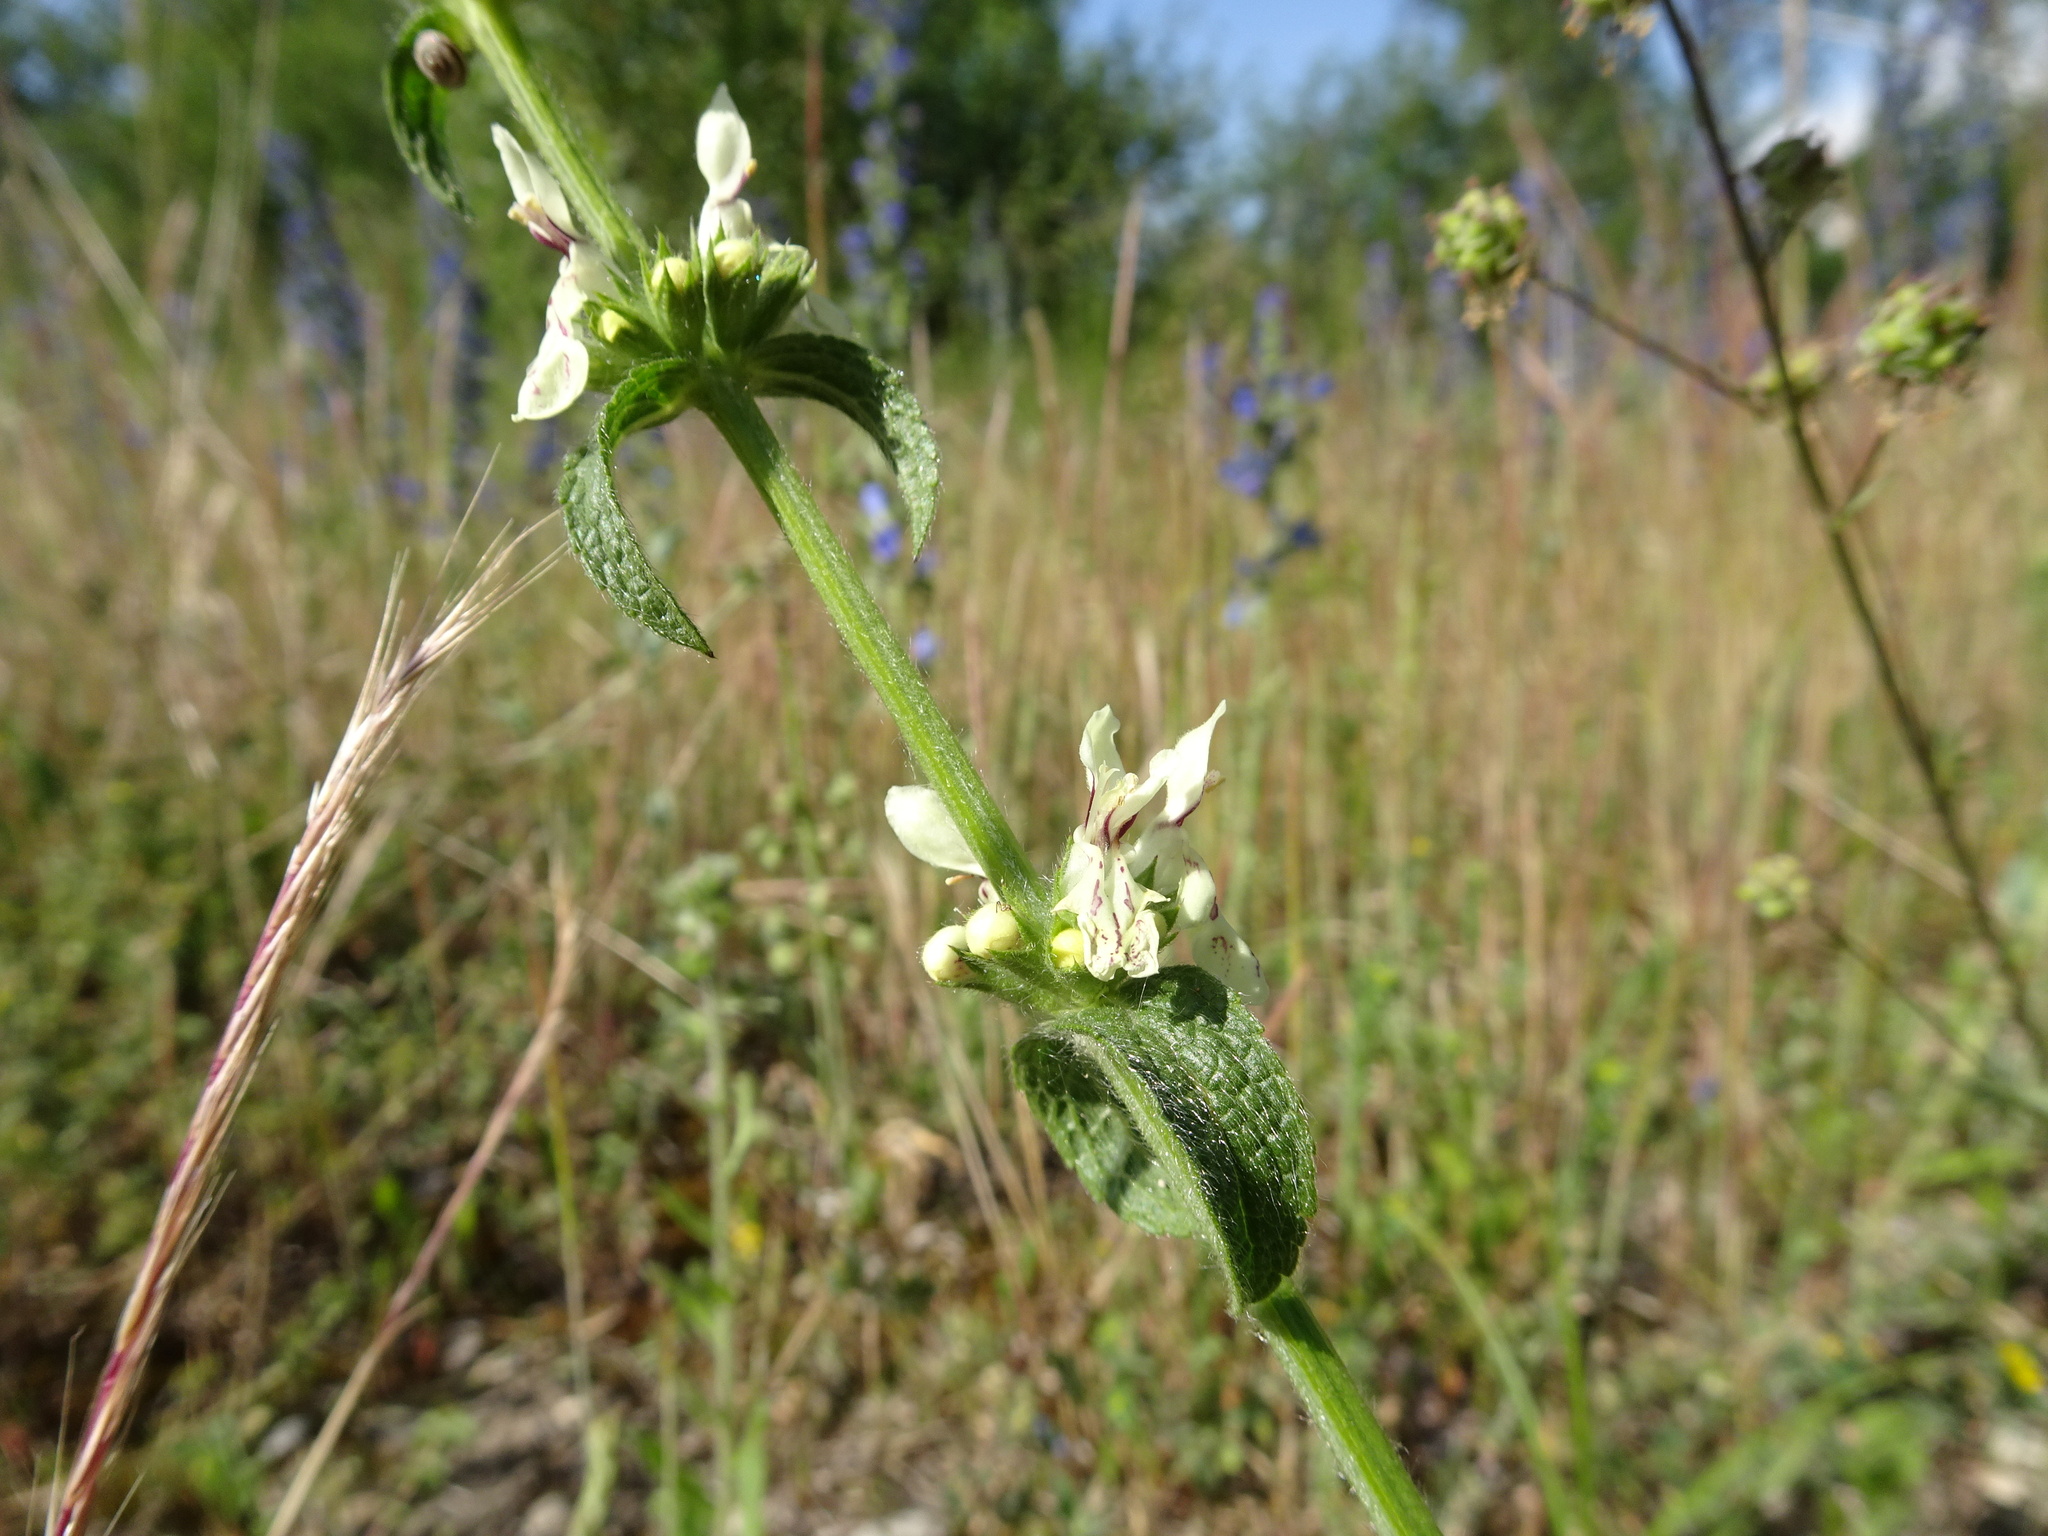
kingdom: Plantae
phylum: Tracheophyta
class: Magnoliopsida
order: Lamiales
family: Lamiaceae
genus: Stachys
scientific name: Stachys recta
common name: Perennial yellow-woundwort
